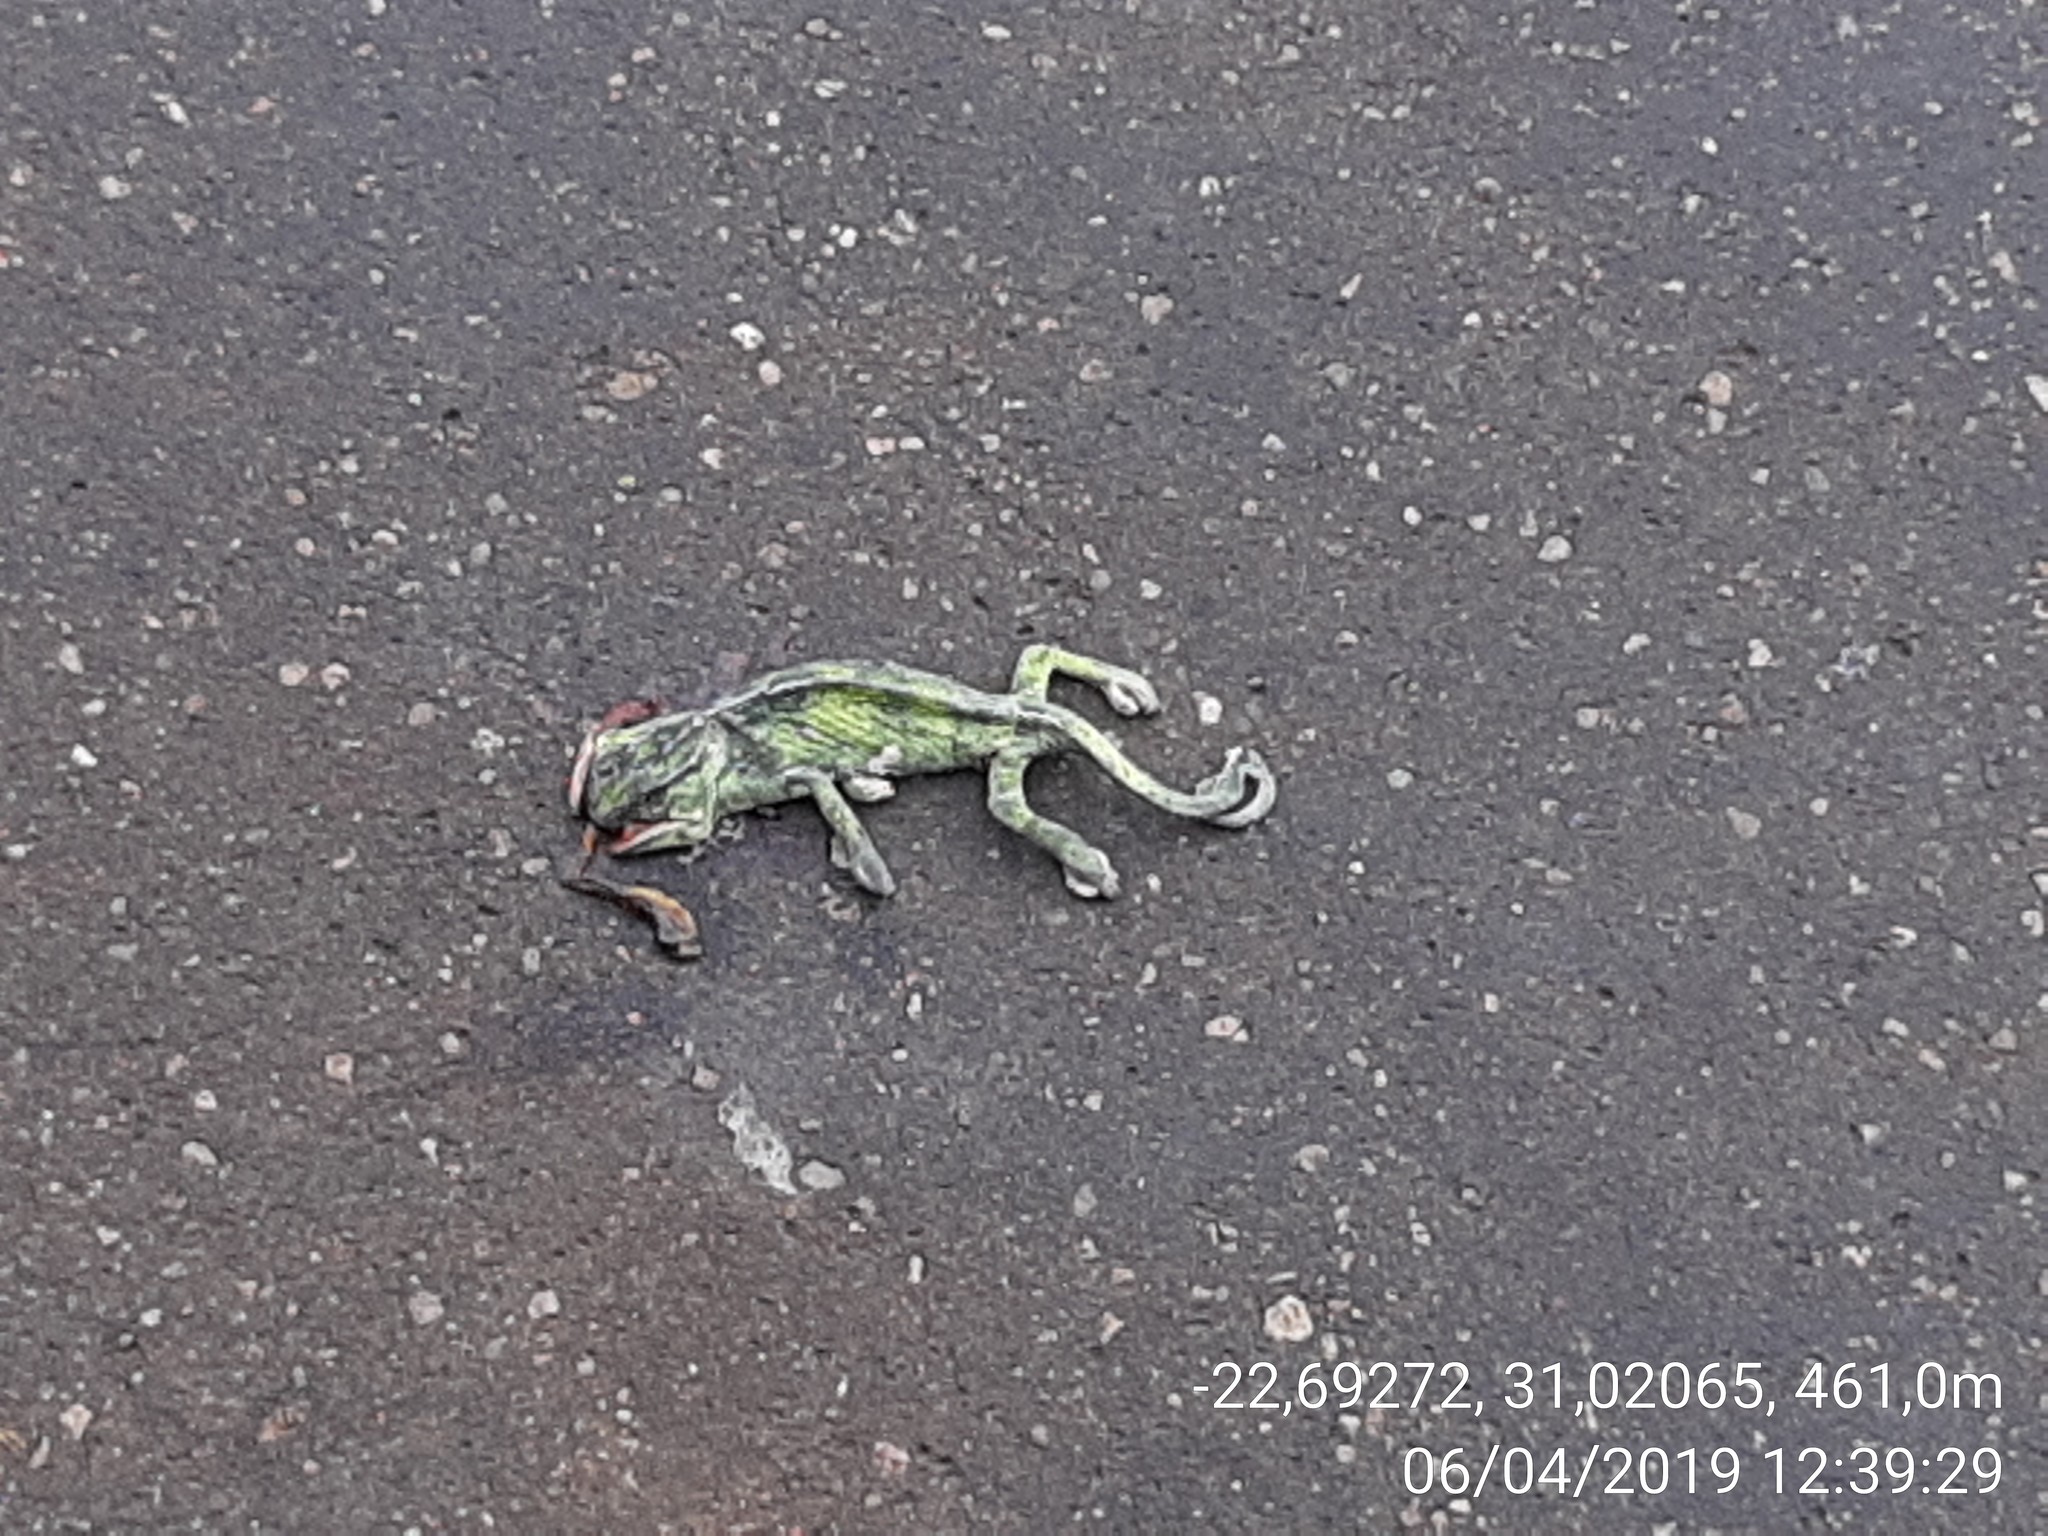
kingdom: Animalia
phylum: Chordata
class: Squamata
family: Chamaeleonidae
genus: Chamaeleo
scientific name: Chamaeleo dilepis
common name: Flapneck chameleon
